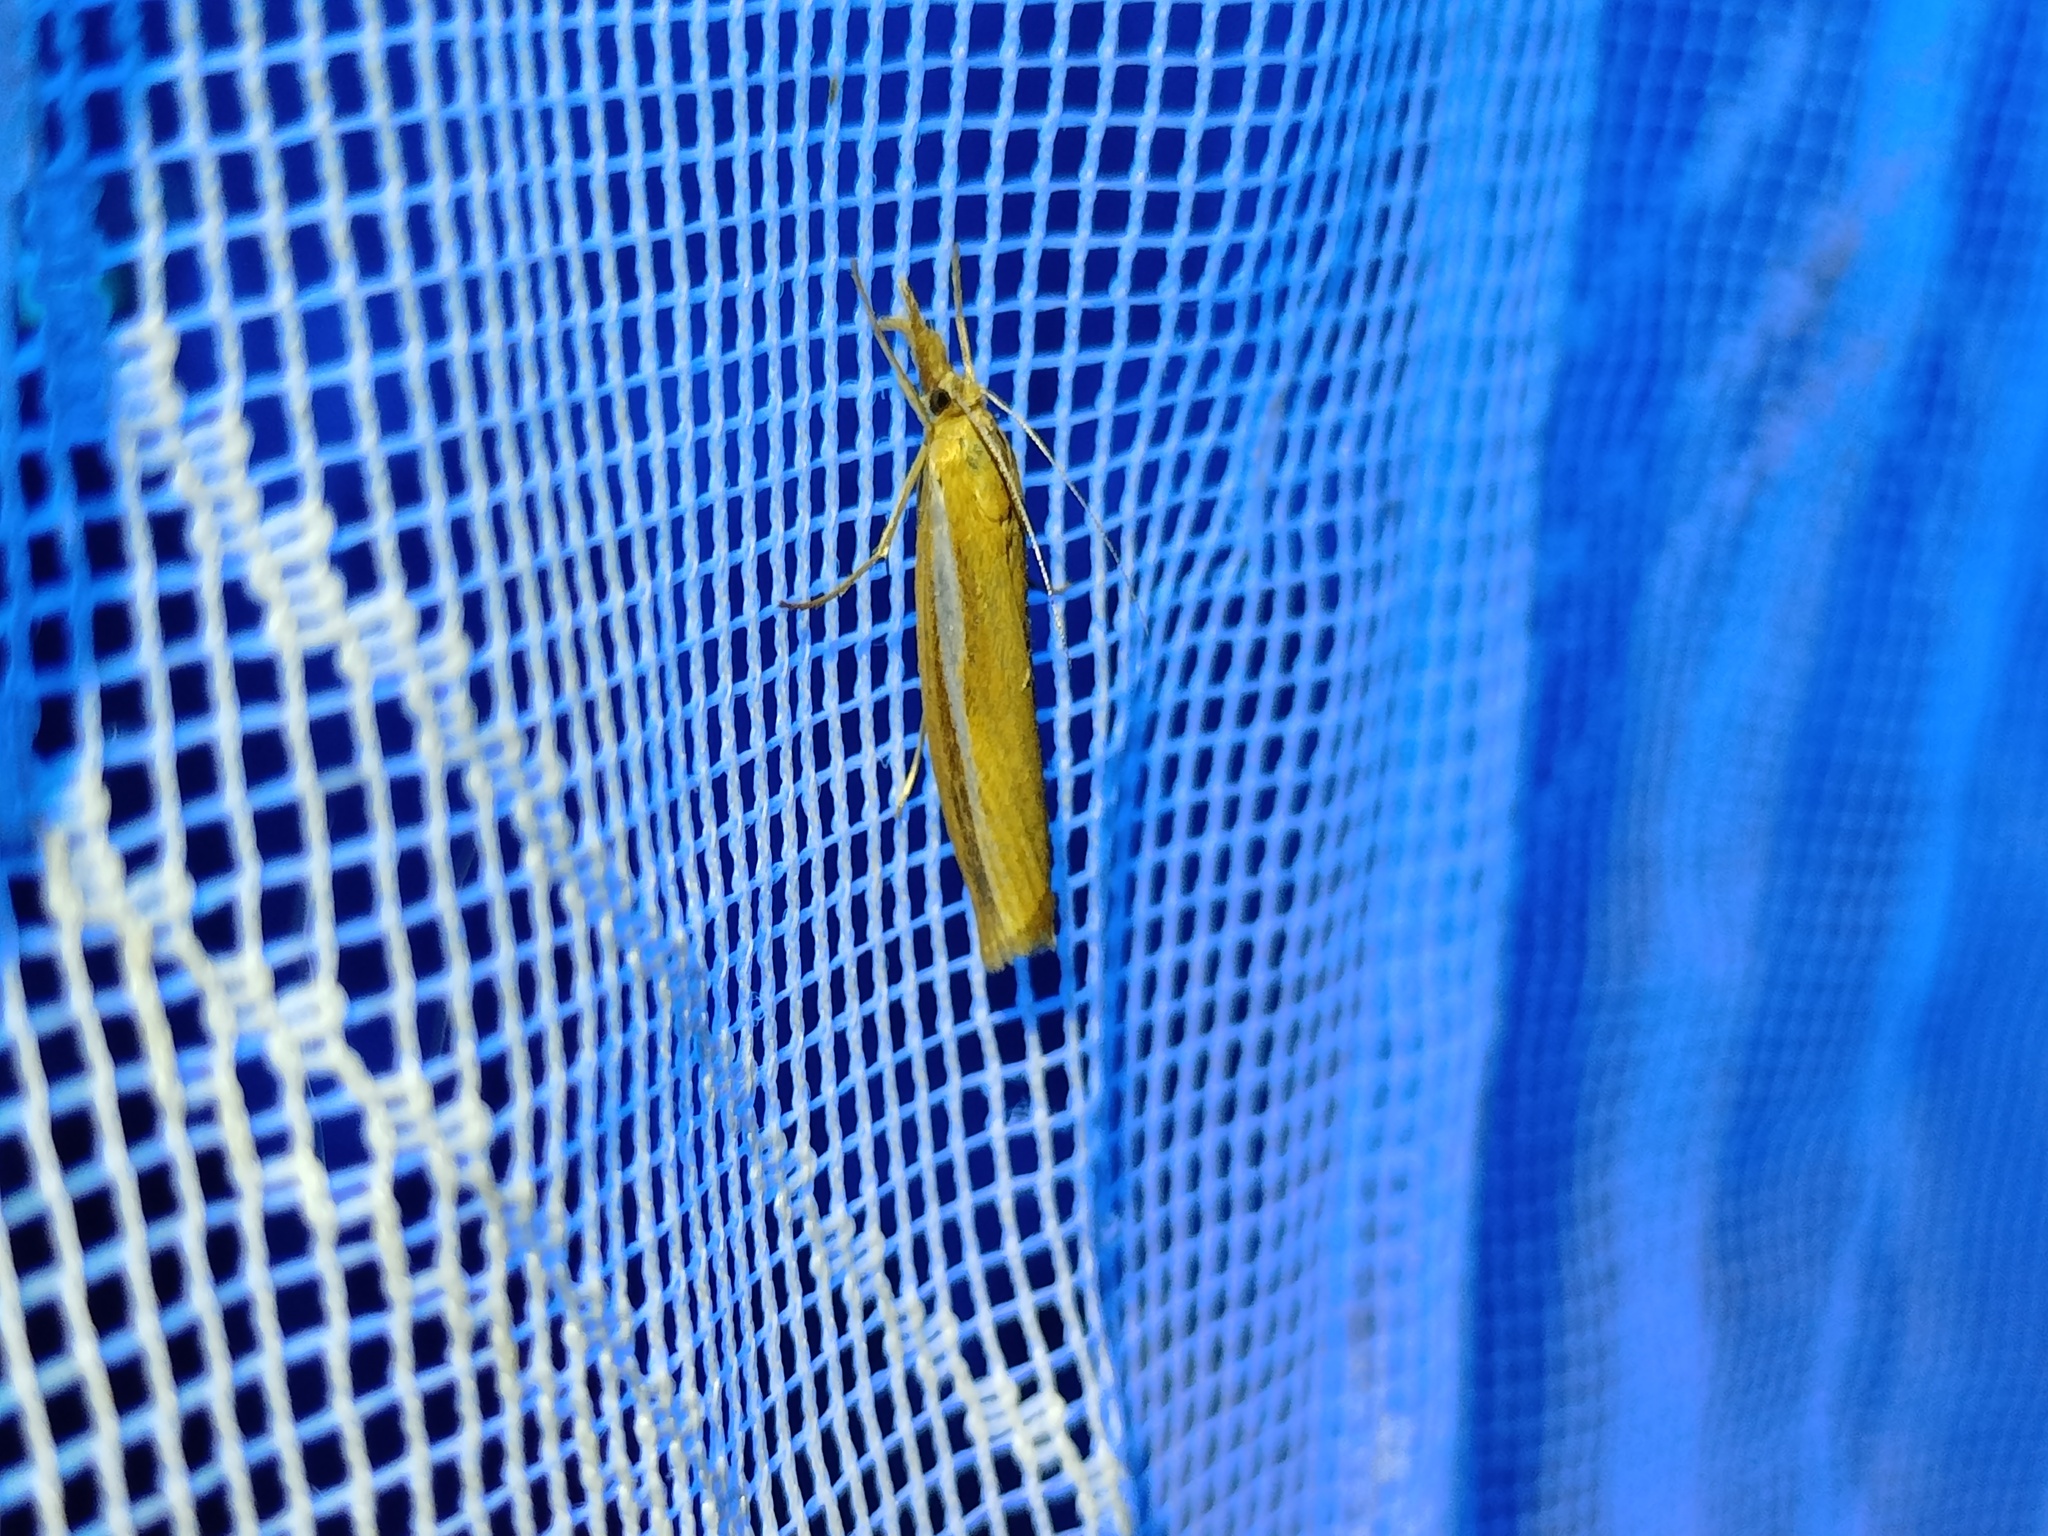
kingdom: Animalia
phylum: Arthropoda
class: Insecta
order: Lepidoptera
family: Crambidae
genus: Agriphila
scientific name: Agriphila tristellus
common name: Common grass-veneer
